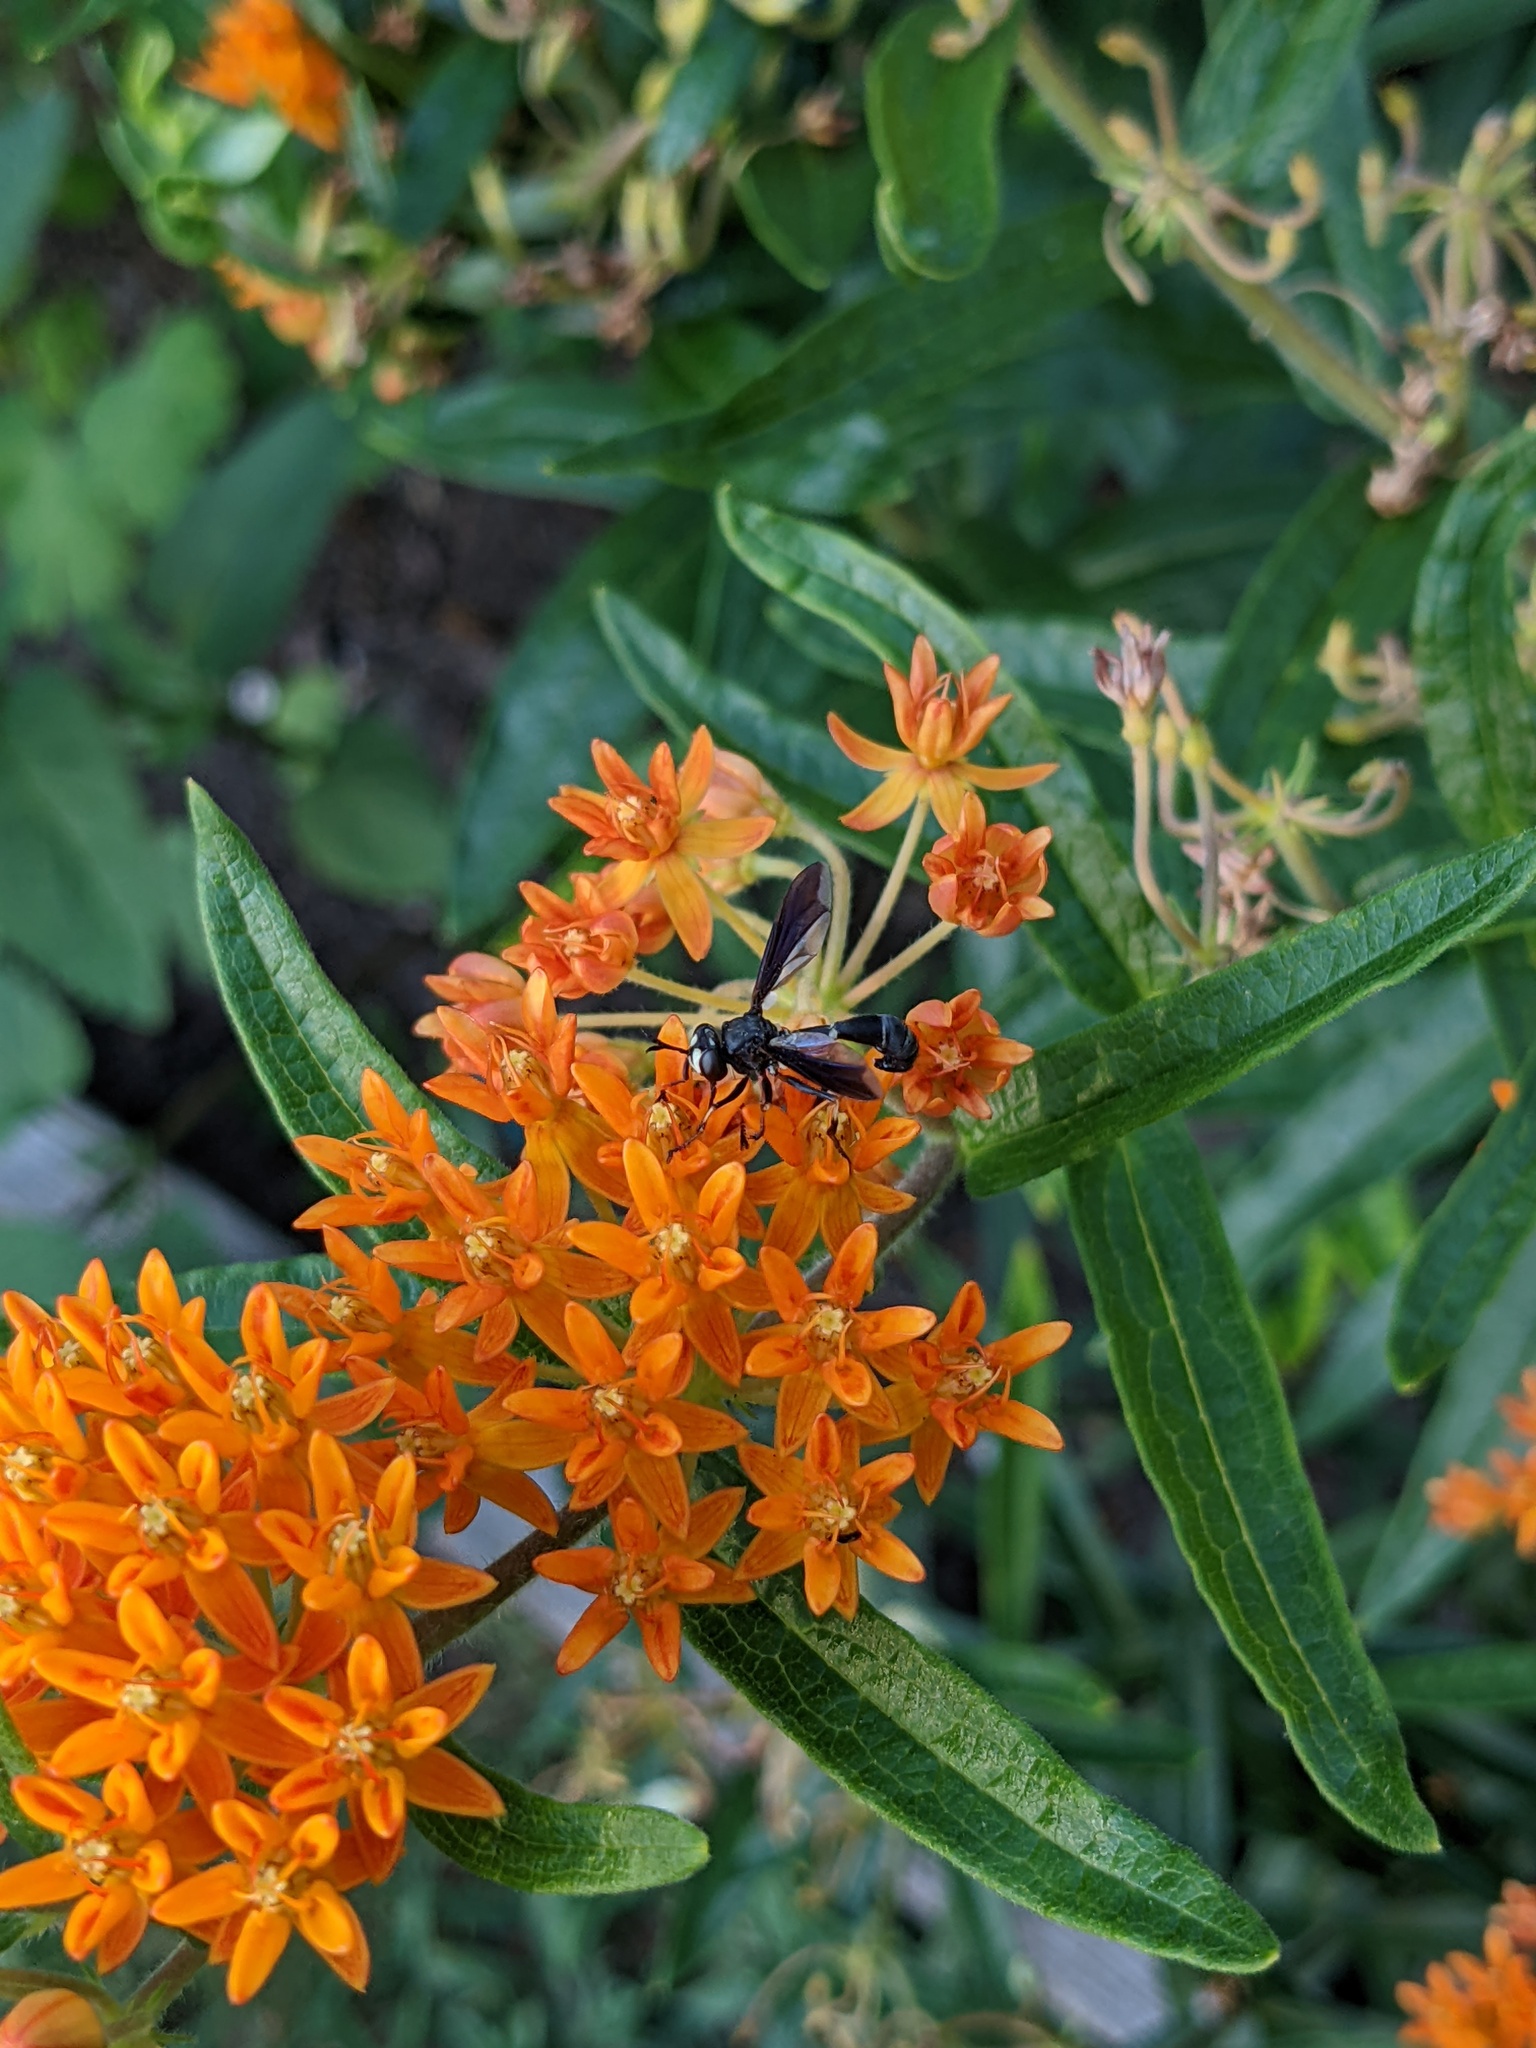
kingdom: Animalia
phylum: Arthropoda
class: Insecta
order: Diptera
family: Conopidae
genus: Physocephala
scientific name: Physocephala tibialis
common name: Common eastern physocephala
